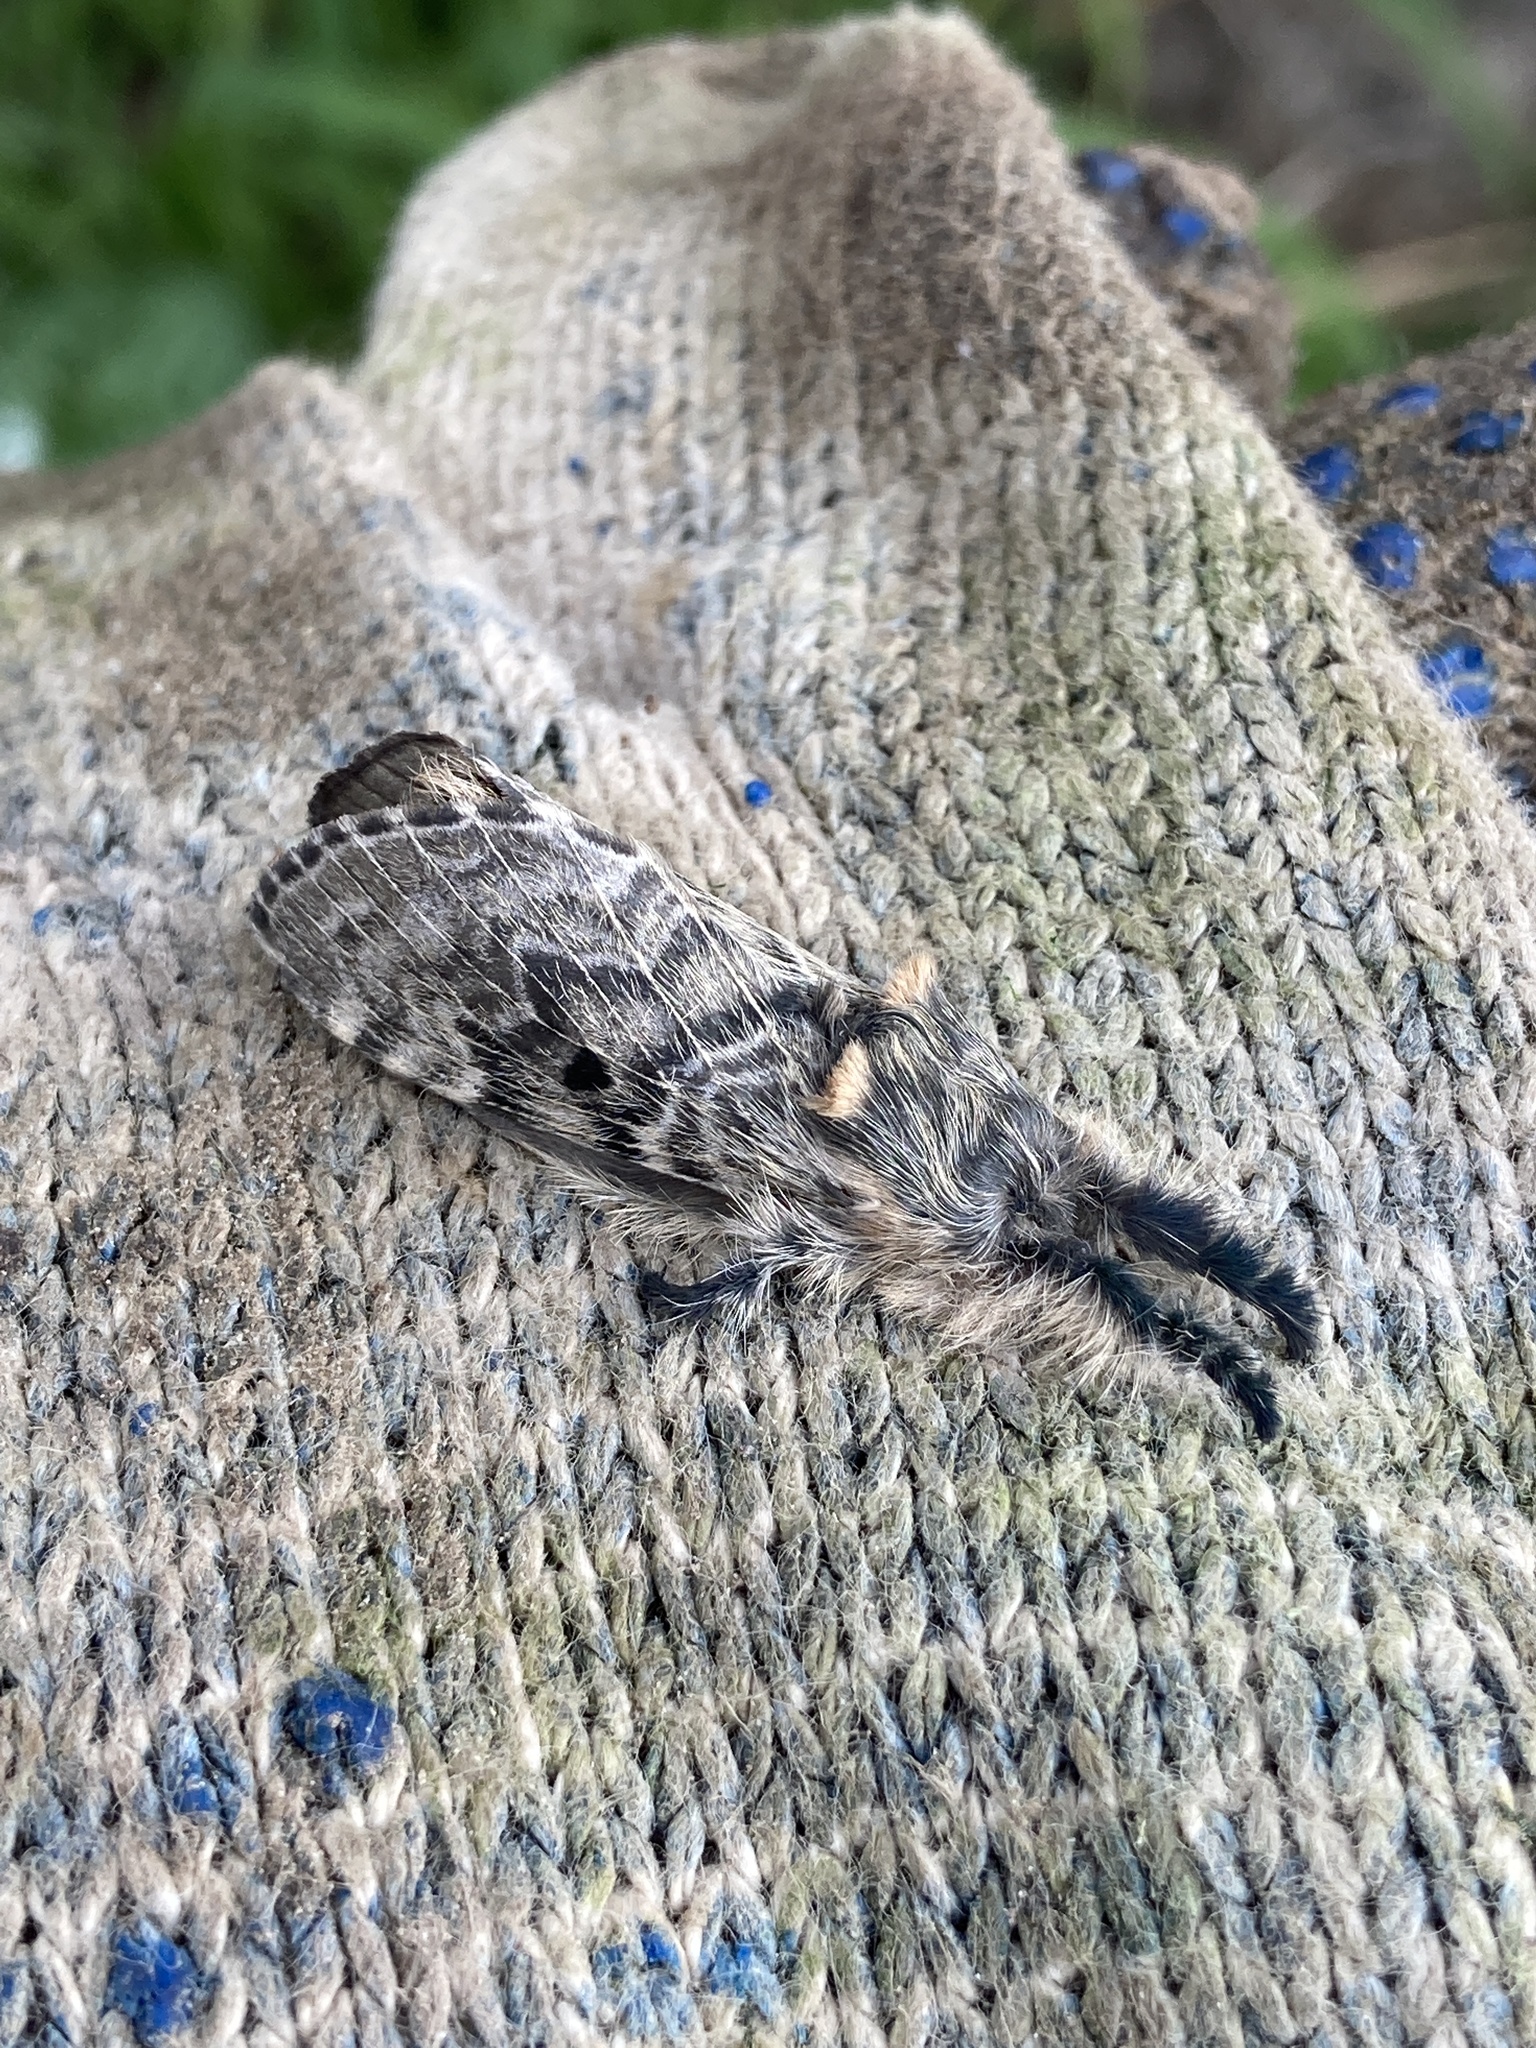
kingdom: Animalia
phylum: Arthropoda
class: Insecta
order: Lepidoptera
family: Lasiocampidae
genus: Labedera
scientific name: Labedera
